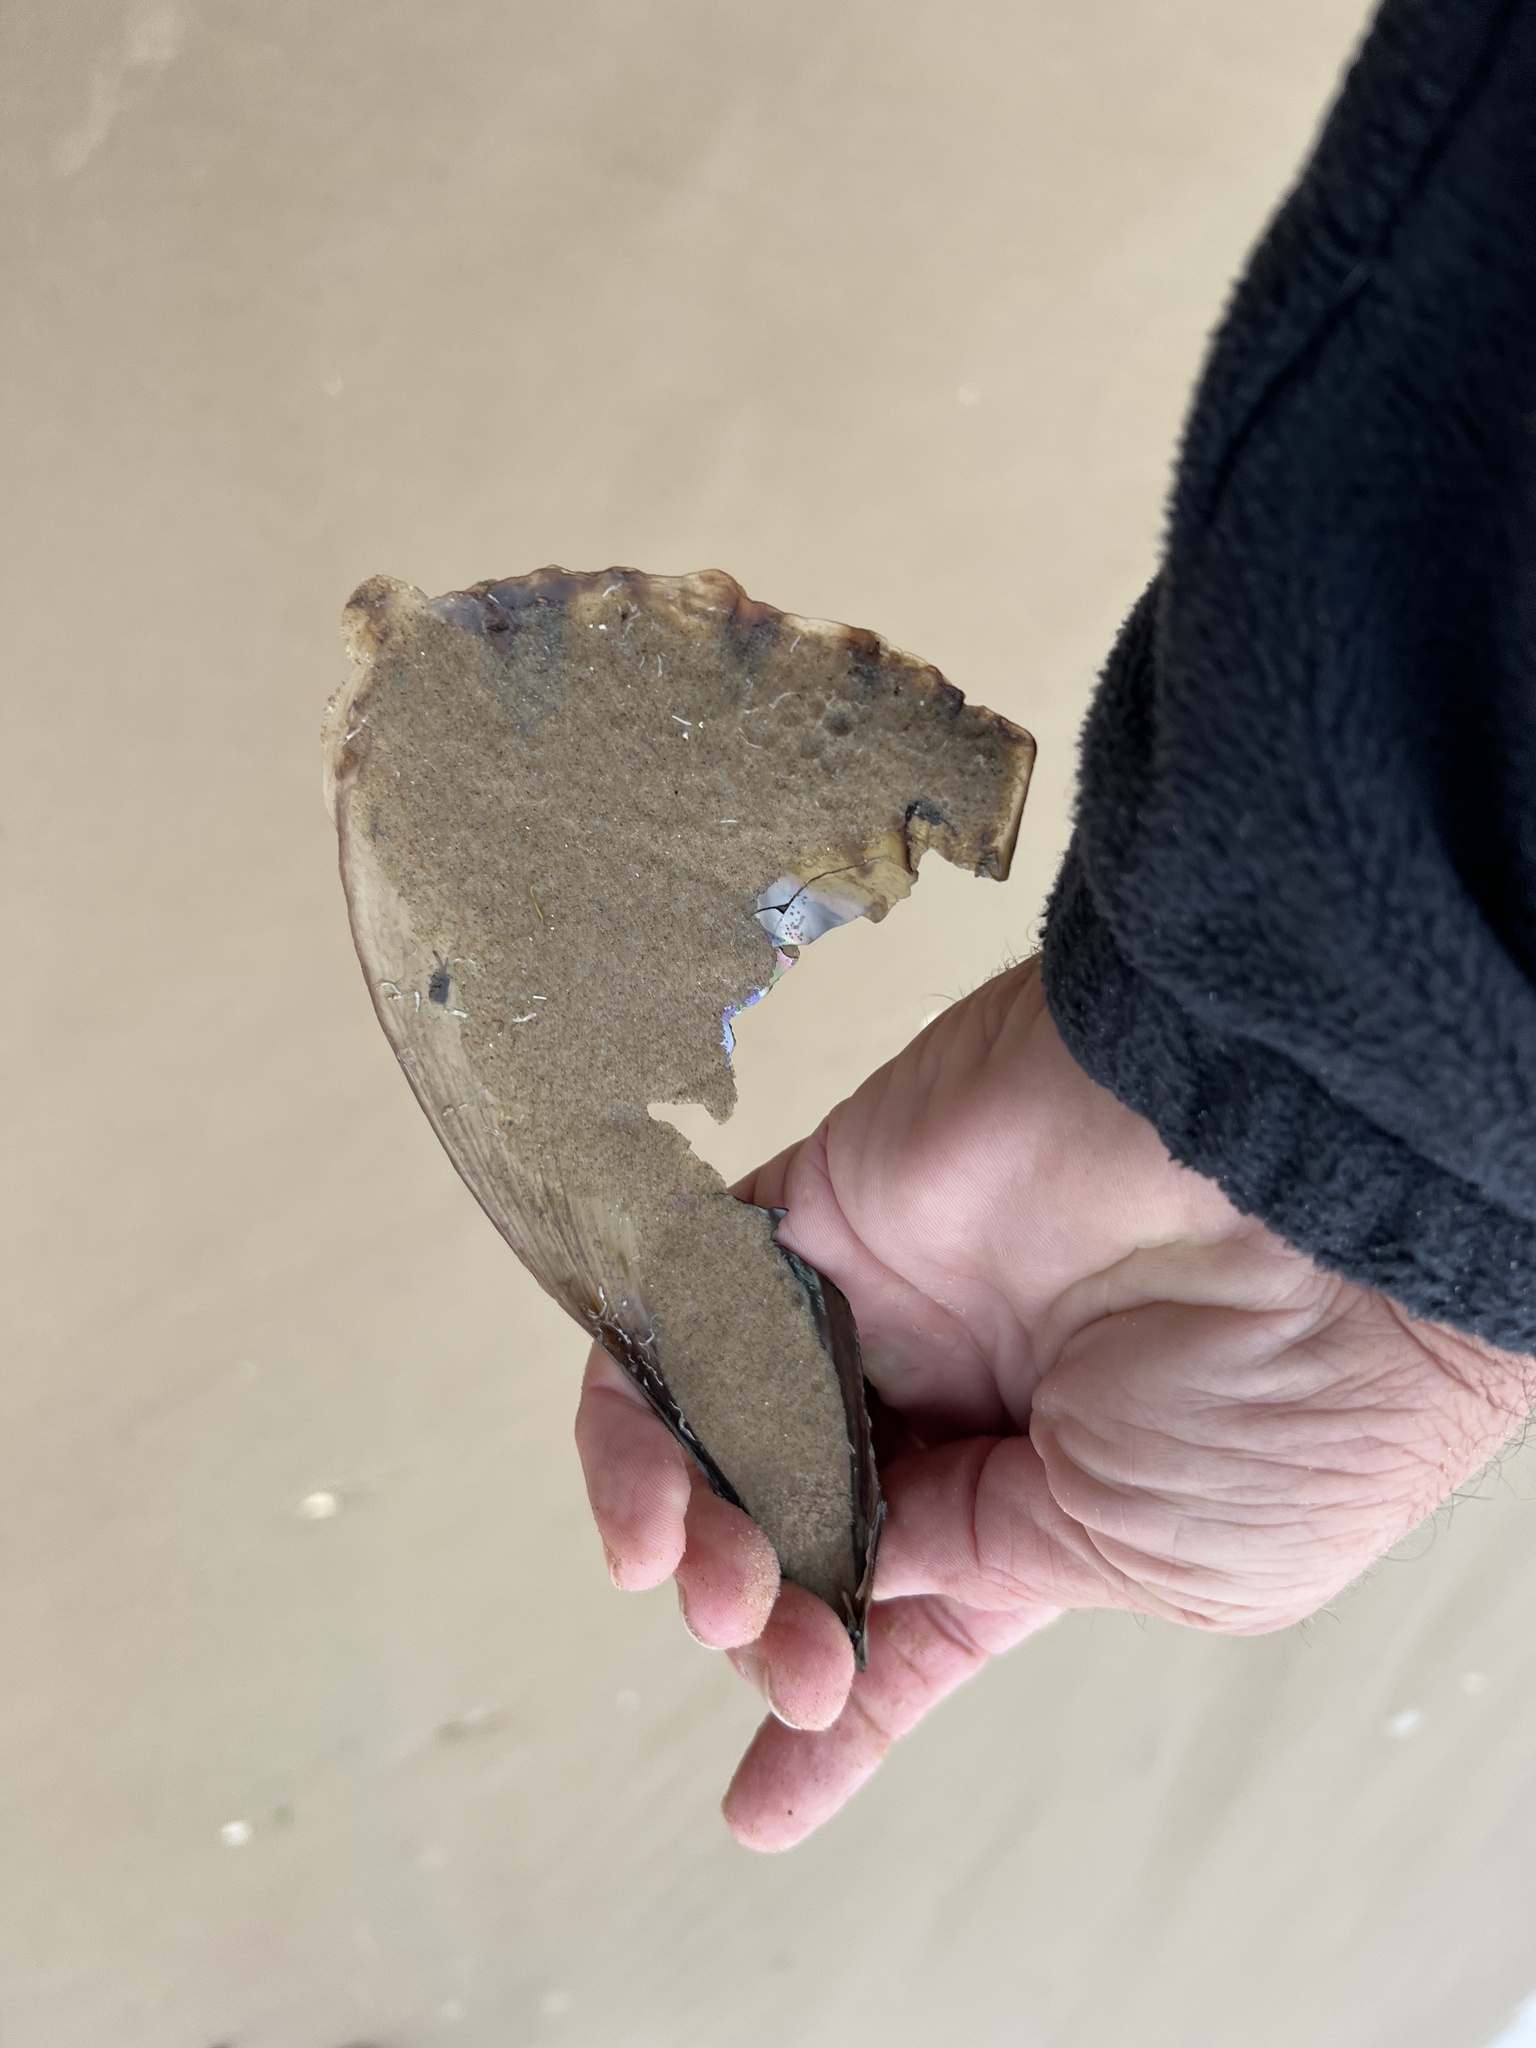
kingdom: Animalia
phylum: Mollusca
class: Bivalvia
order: Ostreida
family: Pinnidae
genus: Atrina
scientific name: Atrina serrata
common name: Saw-toothed penshell
